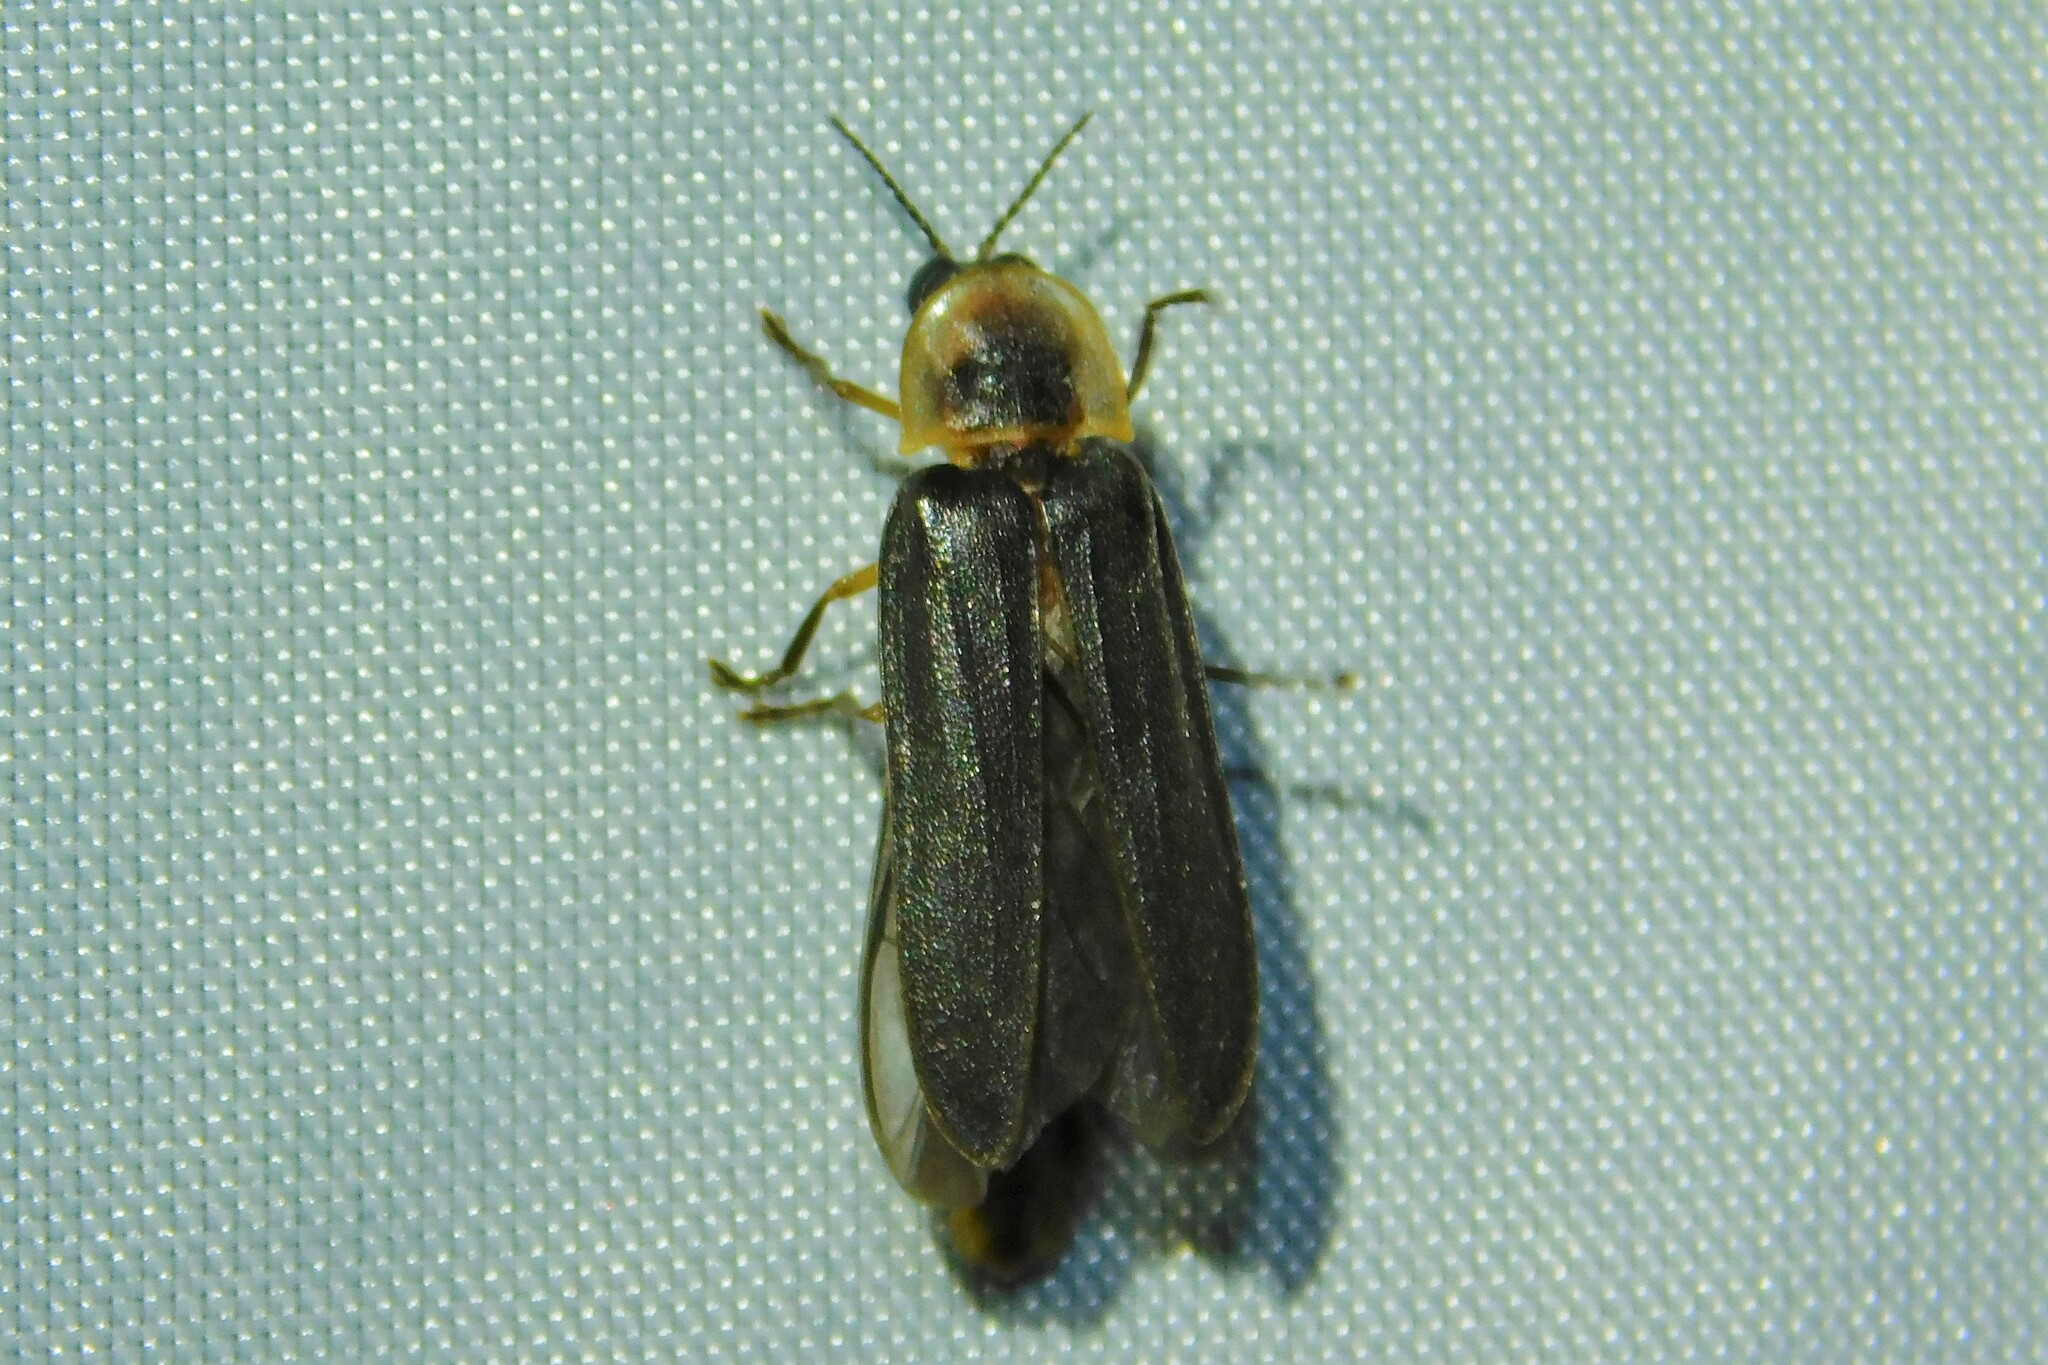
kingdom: Animalia
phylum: Arthropoda
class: Insecta
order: Coleoptera
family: Lampyridae
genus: Lampyris
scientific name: Lampyris noctiluca
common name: Glow-worm
